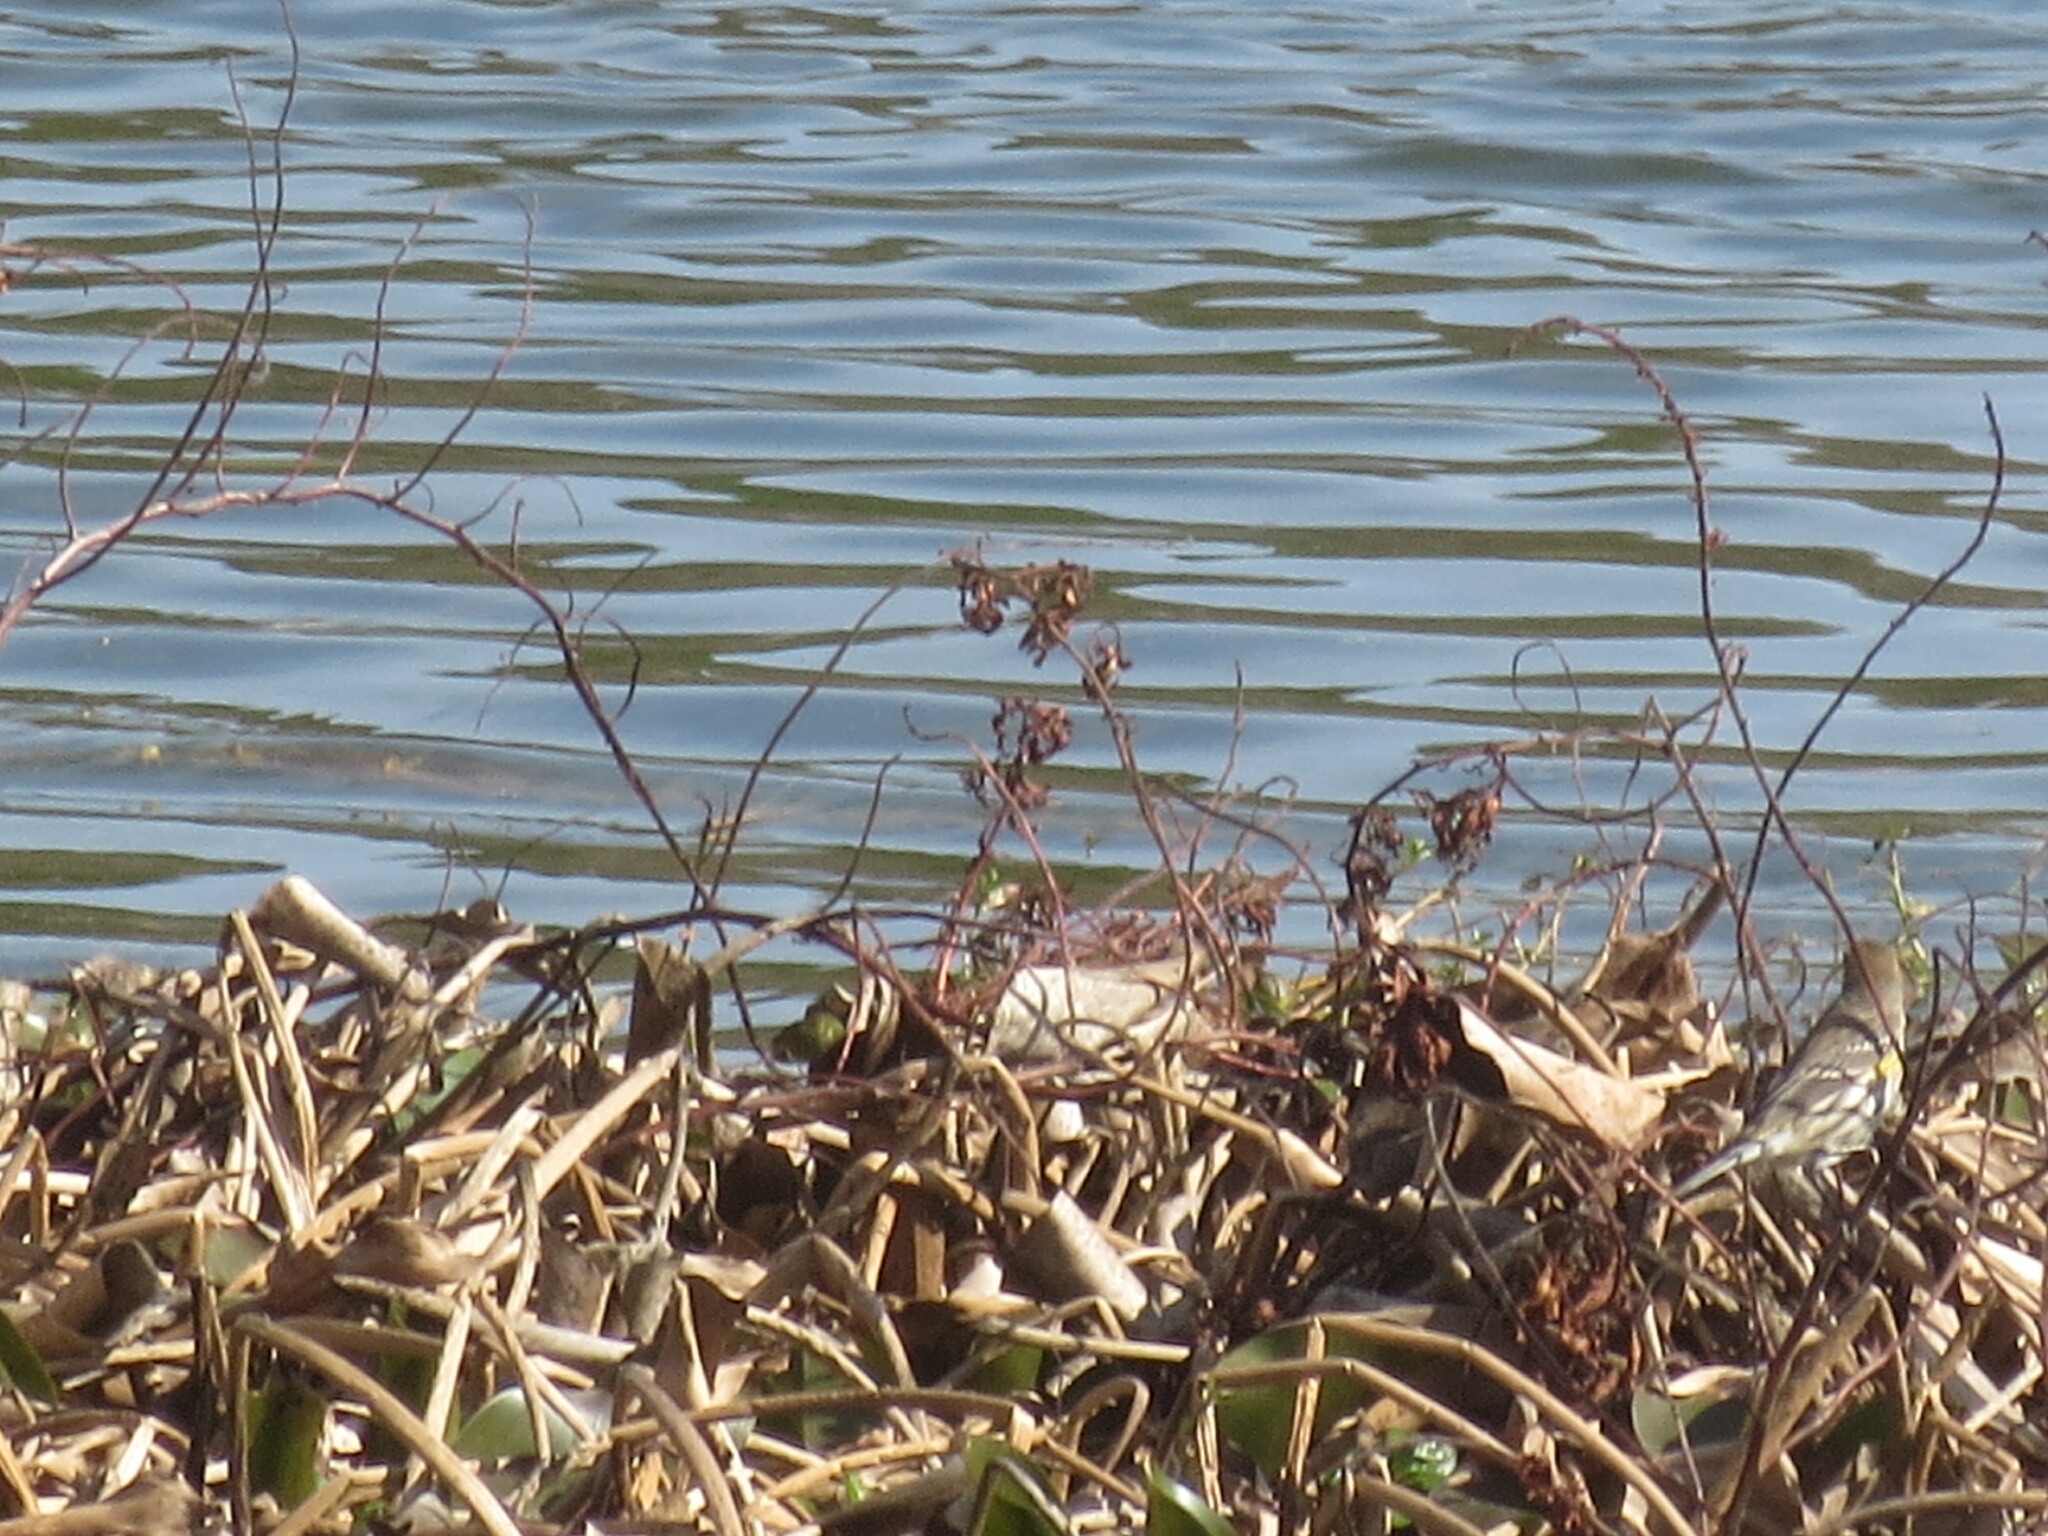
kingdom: Animalia
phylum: Chordata
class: Aves
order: Passeriformes
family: Parulidae
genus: Setophaga
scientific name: Setophaga coronata
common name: Myrtle warbler
